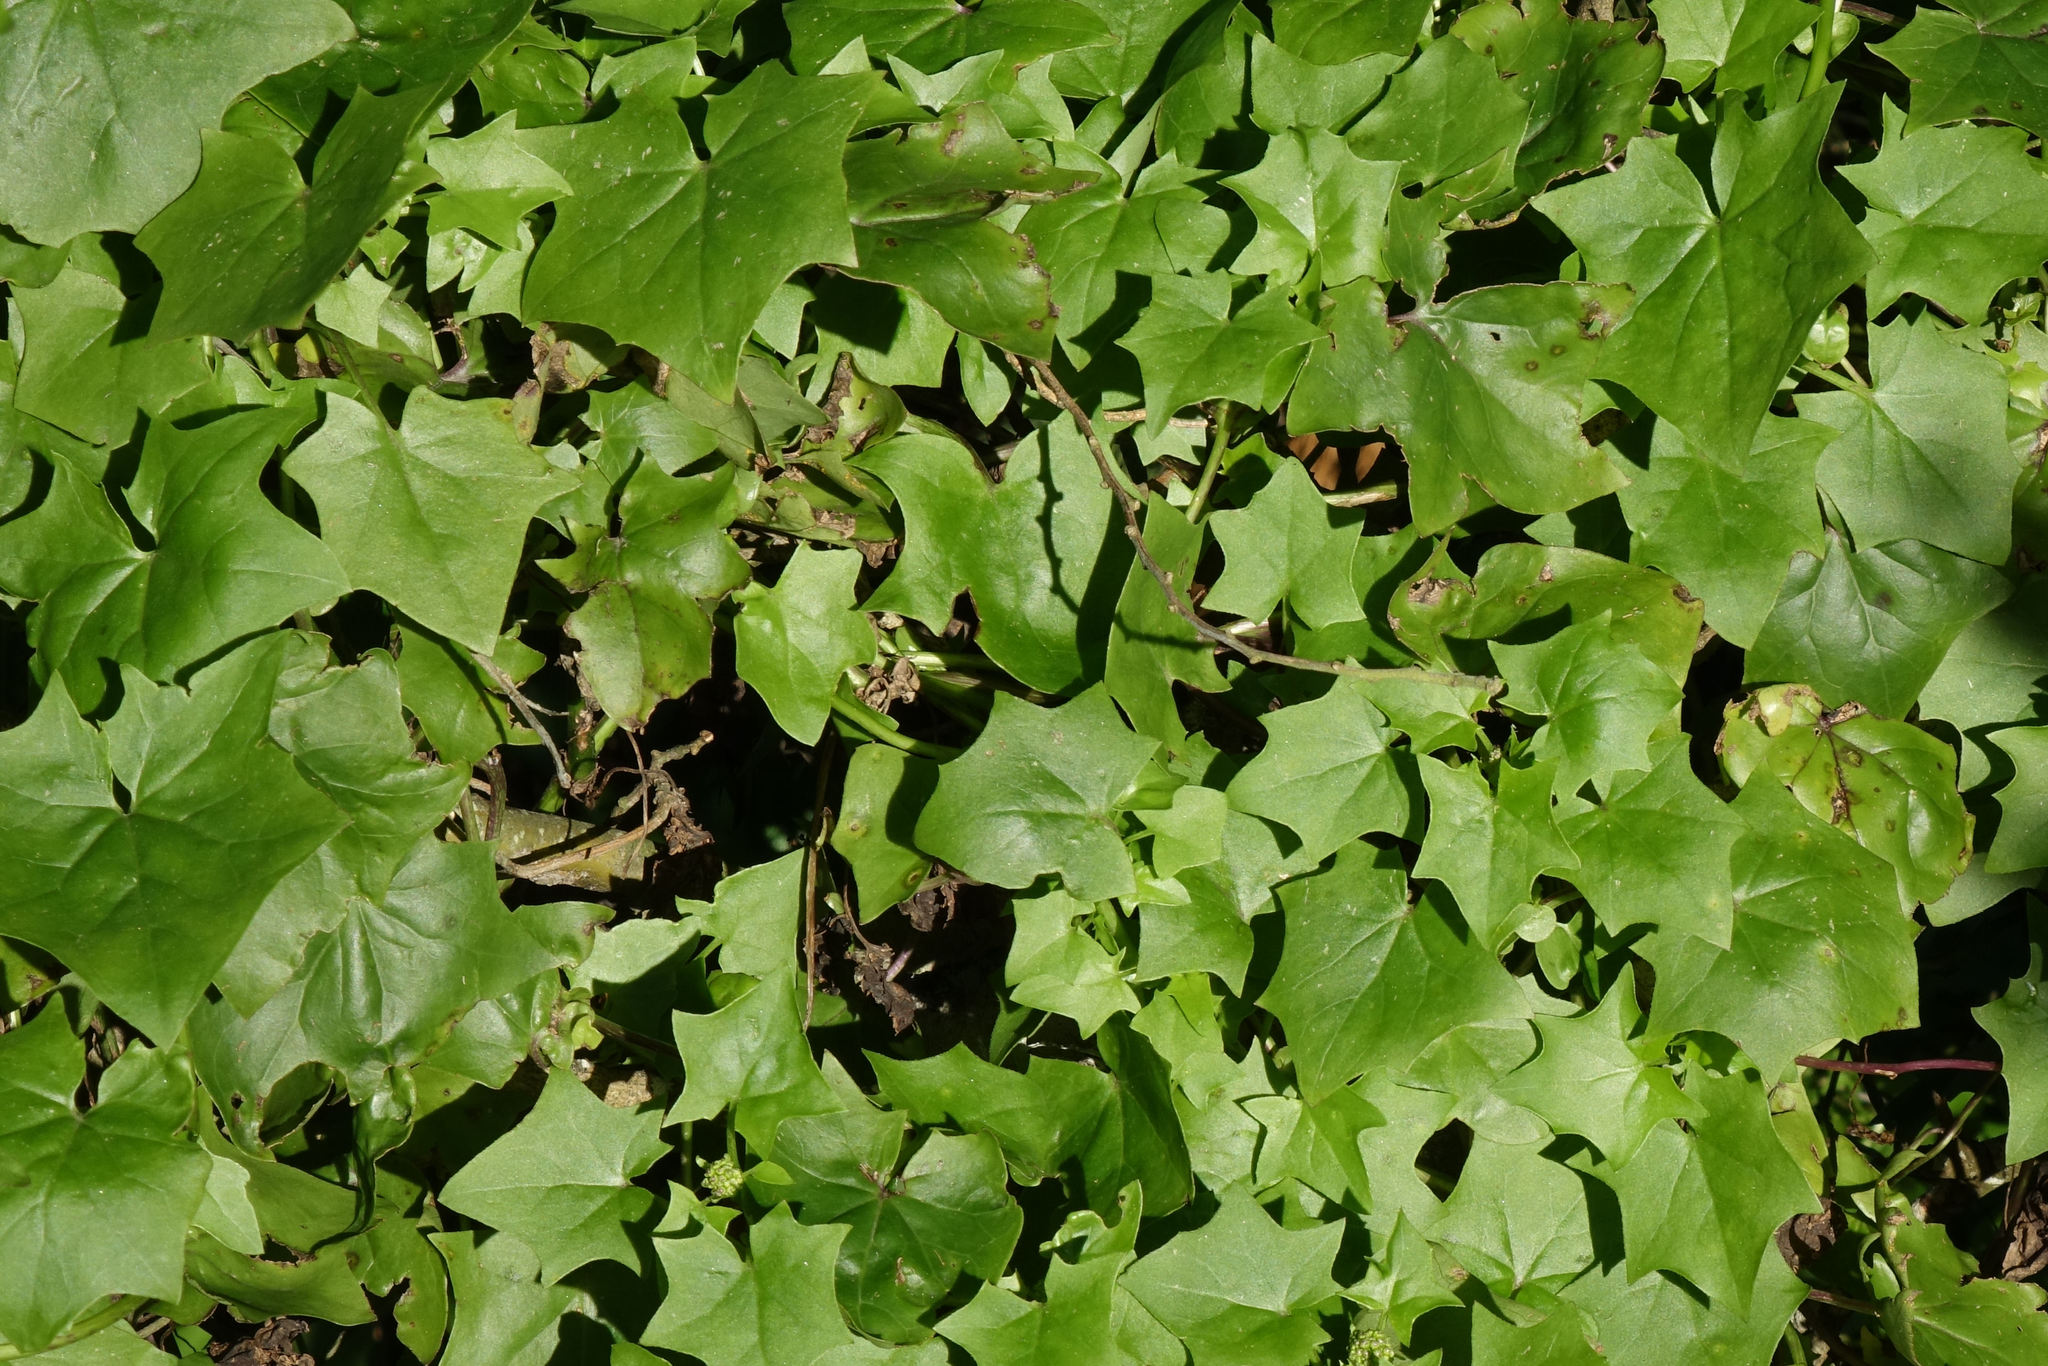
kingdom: Plantae
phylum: Tracheophyta
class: Magnoliopsida
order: Asterales
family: Asteraceae
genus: Delairea
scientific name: Delairea odorata
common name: Cape-ivy
